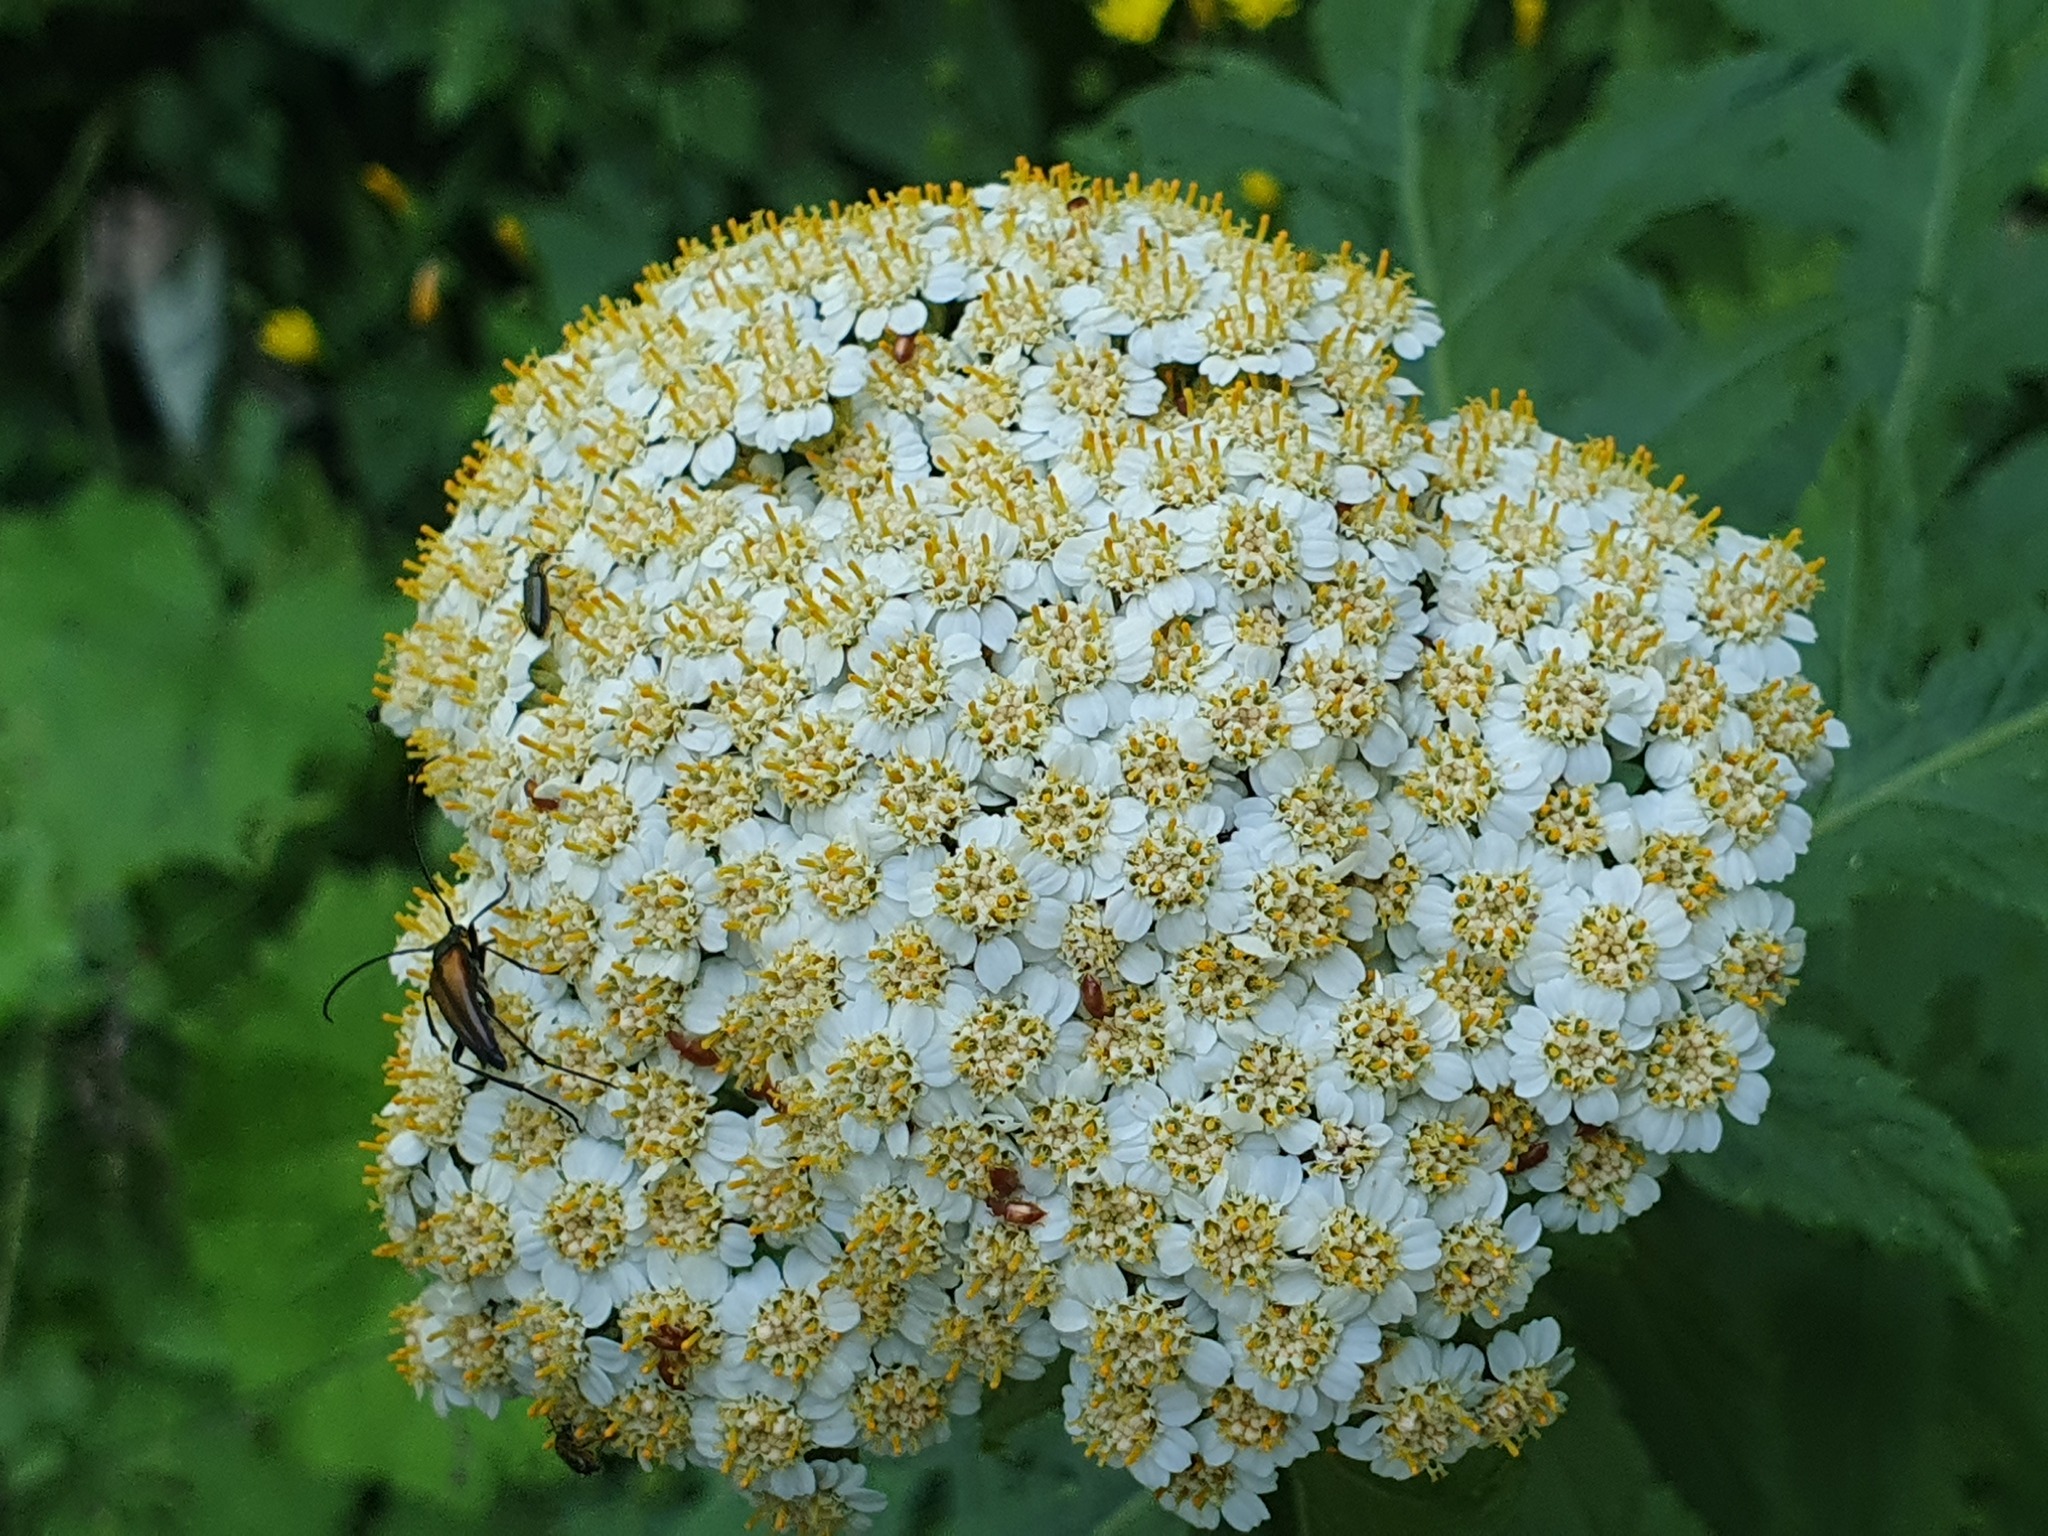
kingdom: Animalia
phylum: Arthropoda
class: Insecta
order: Coleoptera
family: Cerambycidae
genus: Stenurella
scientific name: Stenurella melanura
